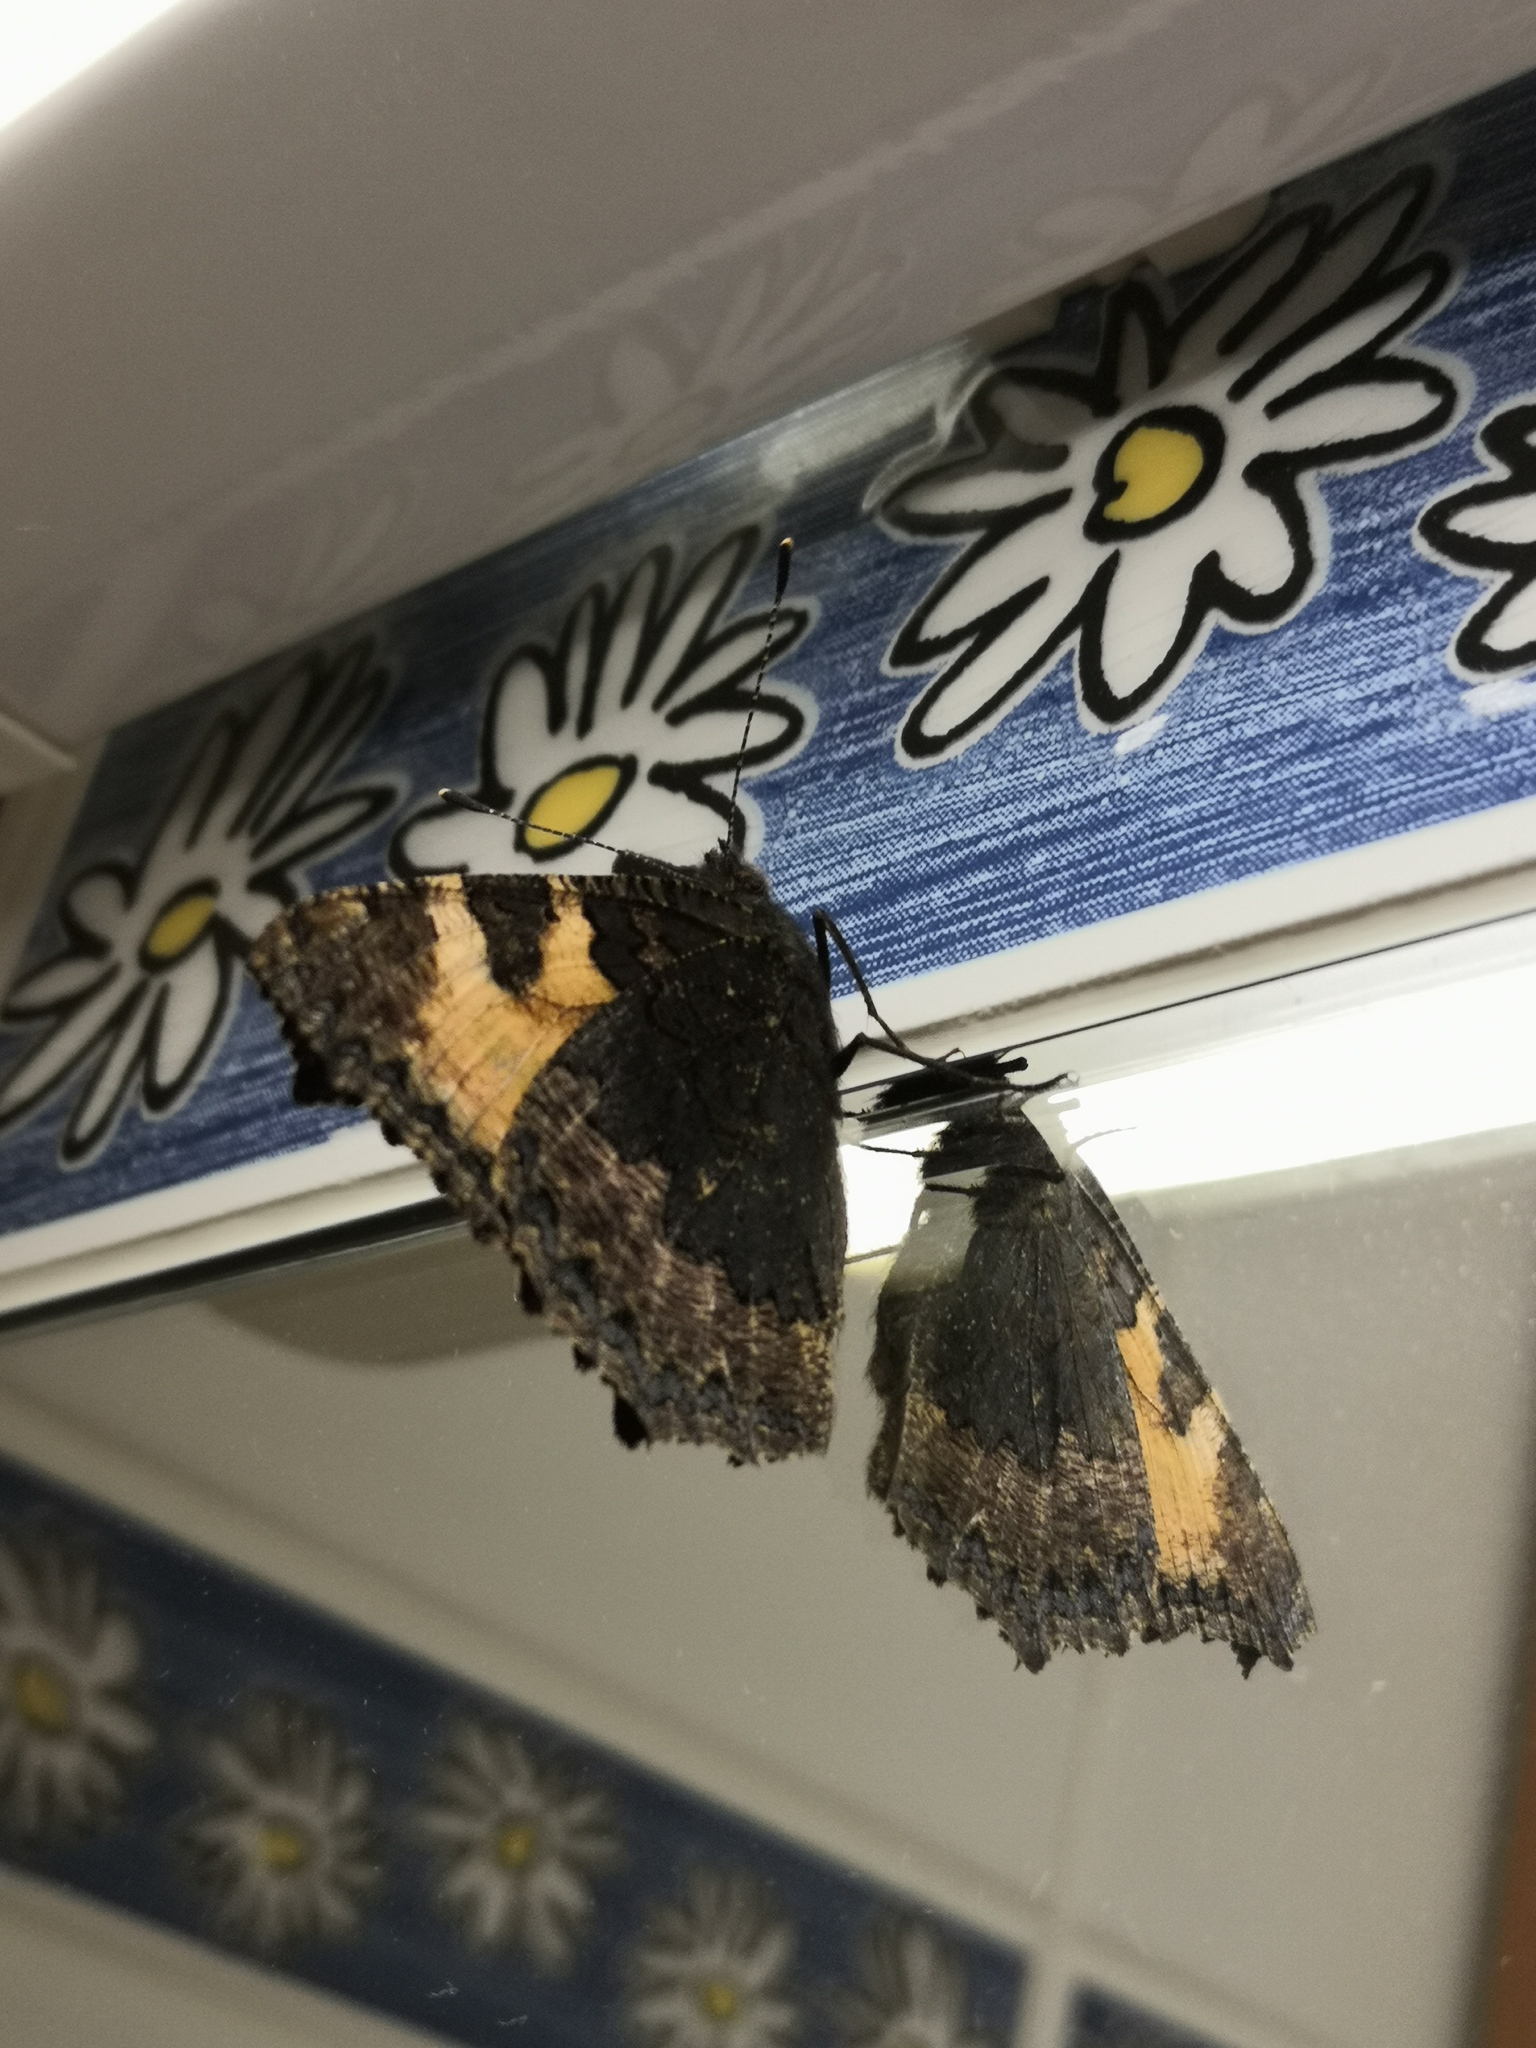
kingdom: Animalia
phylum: Arthropoda
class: Insecta
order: Lepidoptera
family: Nymphalidae
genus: Aglais
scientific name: Aglais urticae
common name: Small tortoiseshell
